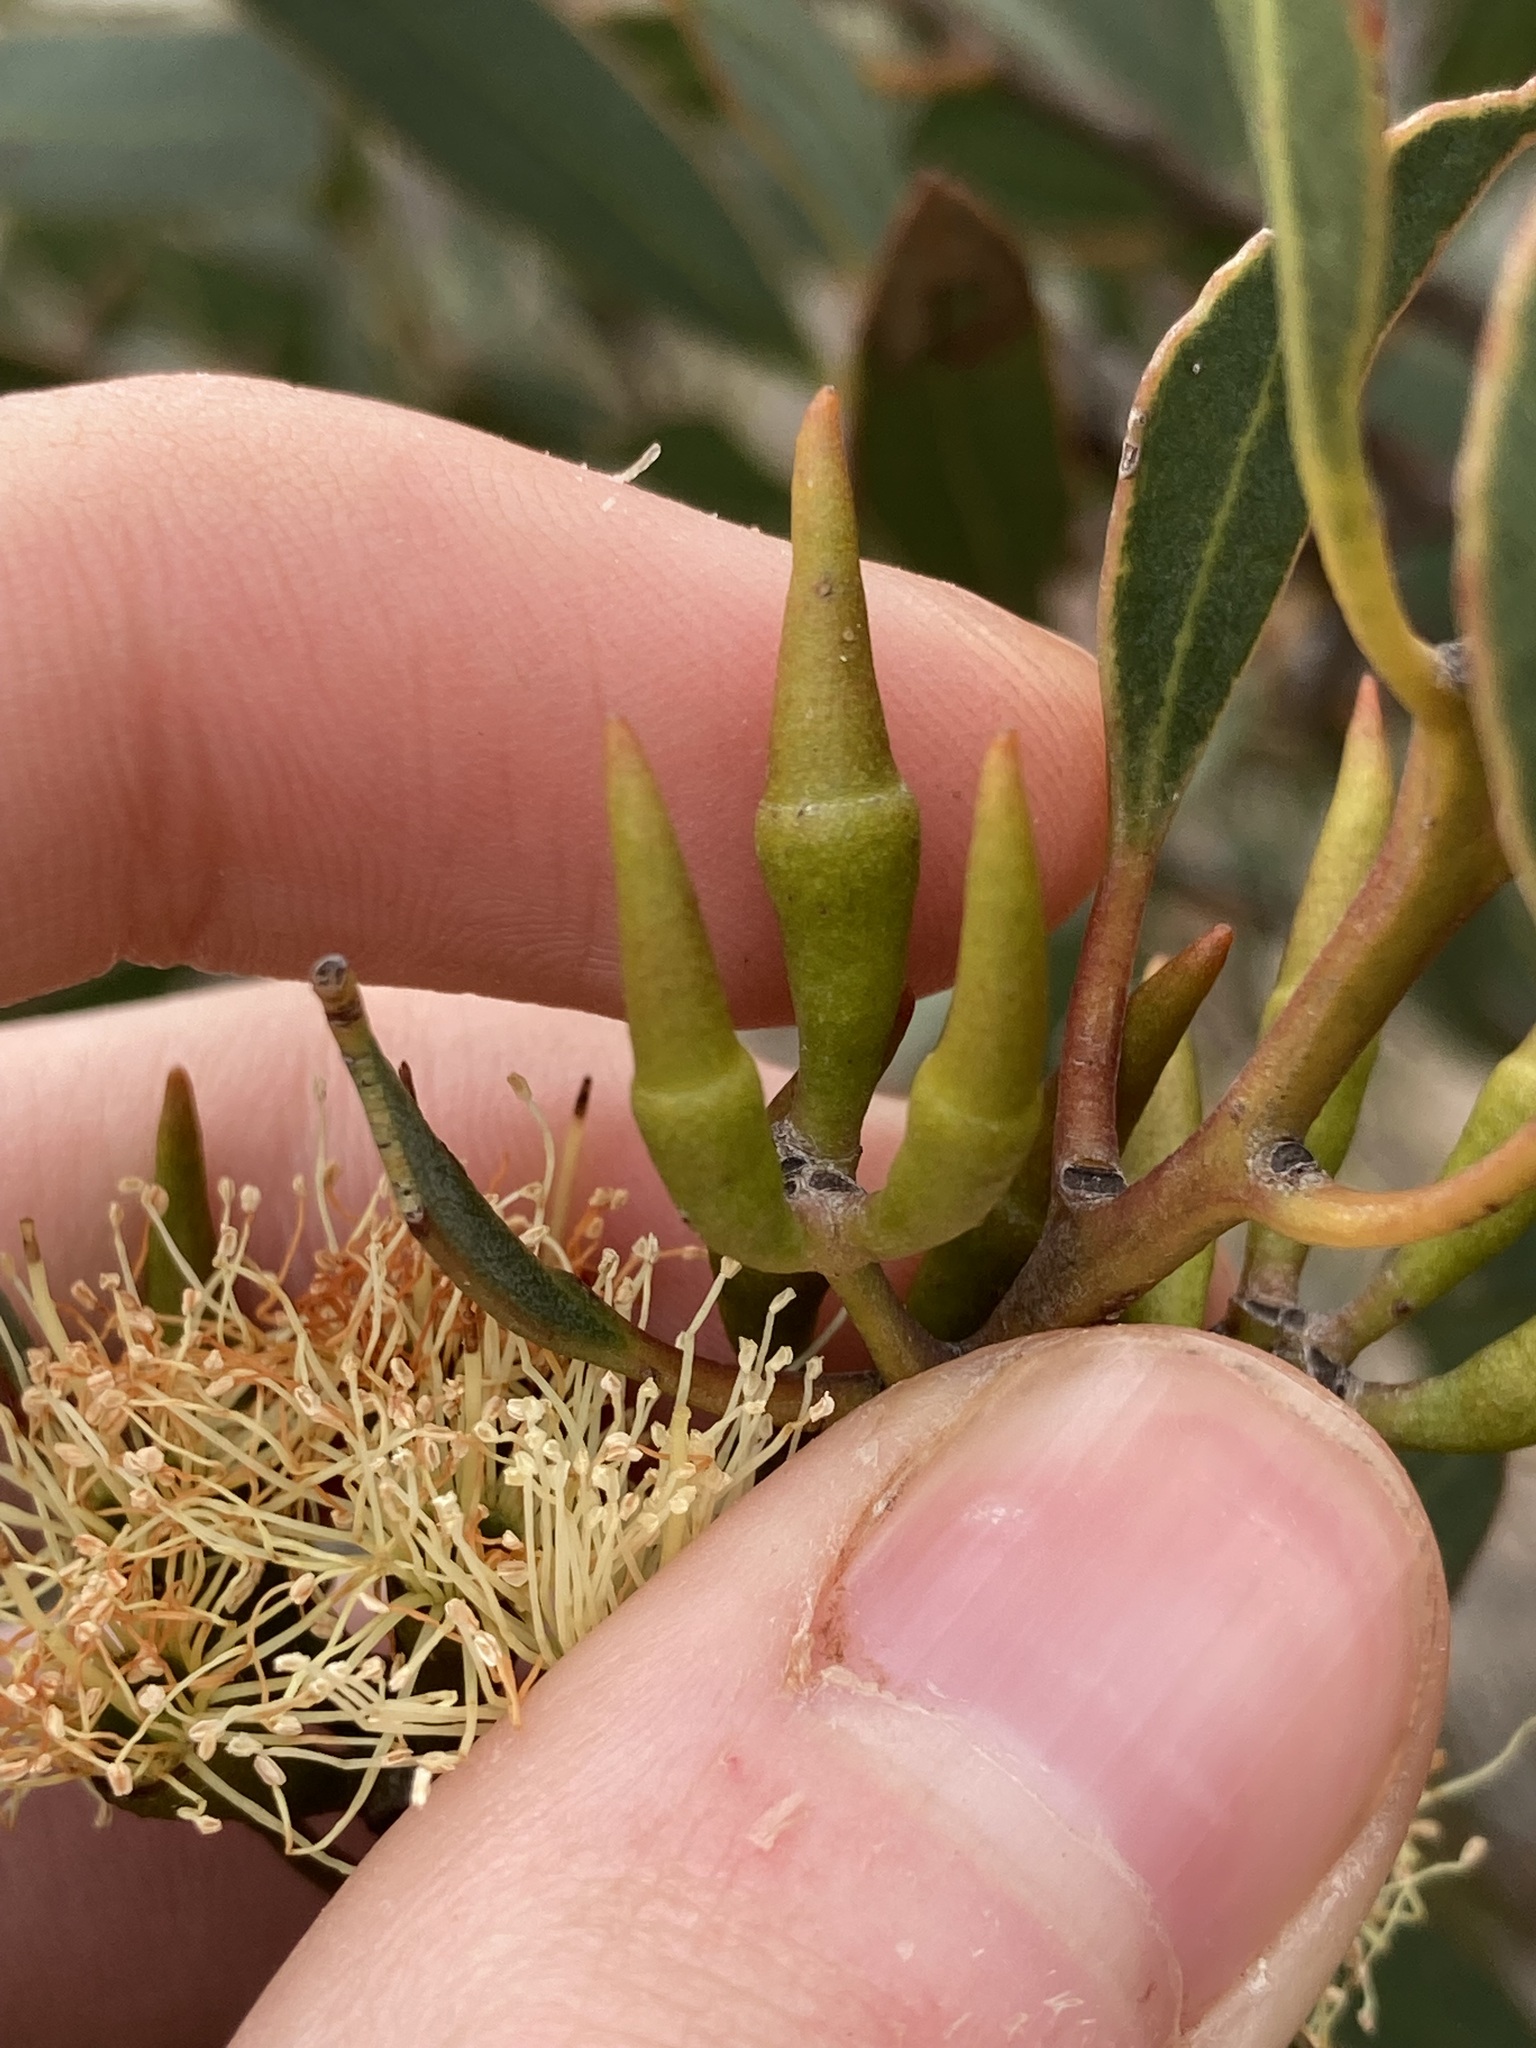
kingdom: Plantae
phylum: Tracheophyta
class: Magnoliopsida
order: Myrtales
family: Myrtaceae
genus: Eucalyptus
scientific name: Eucalyptus hebetifolia
